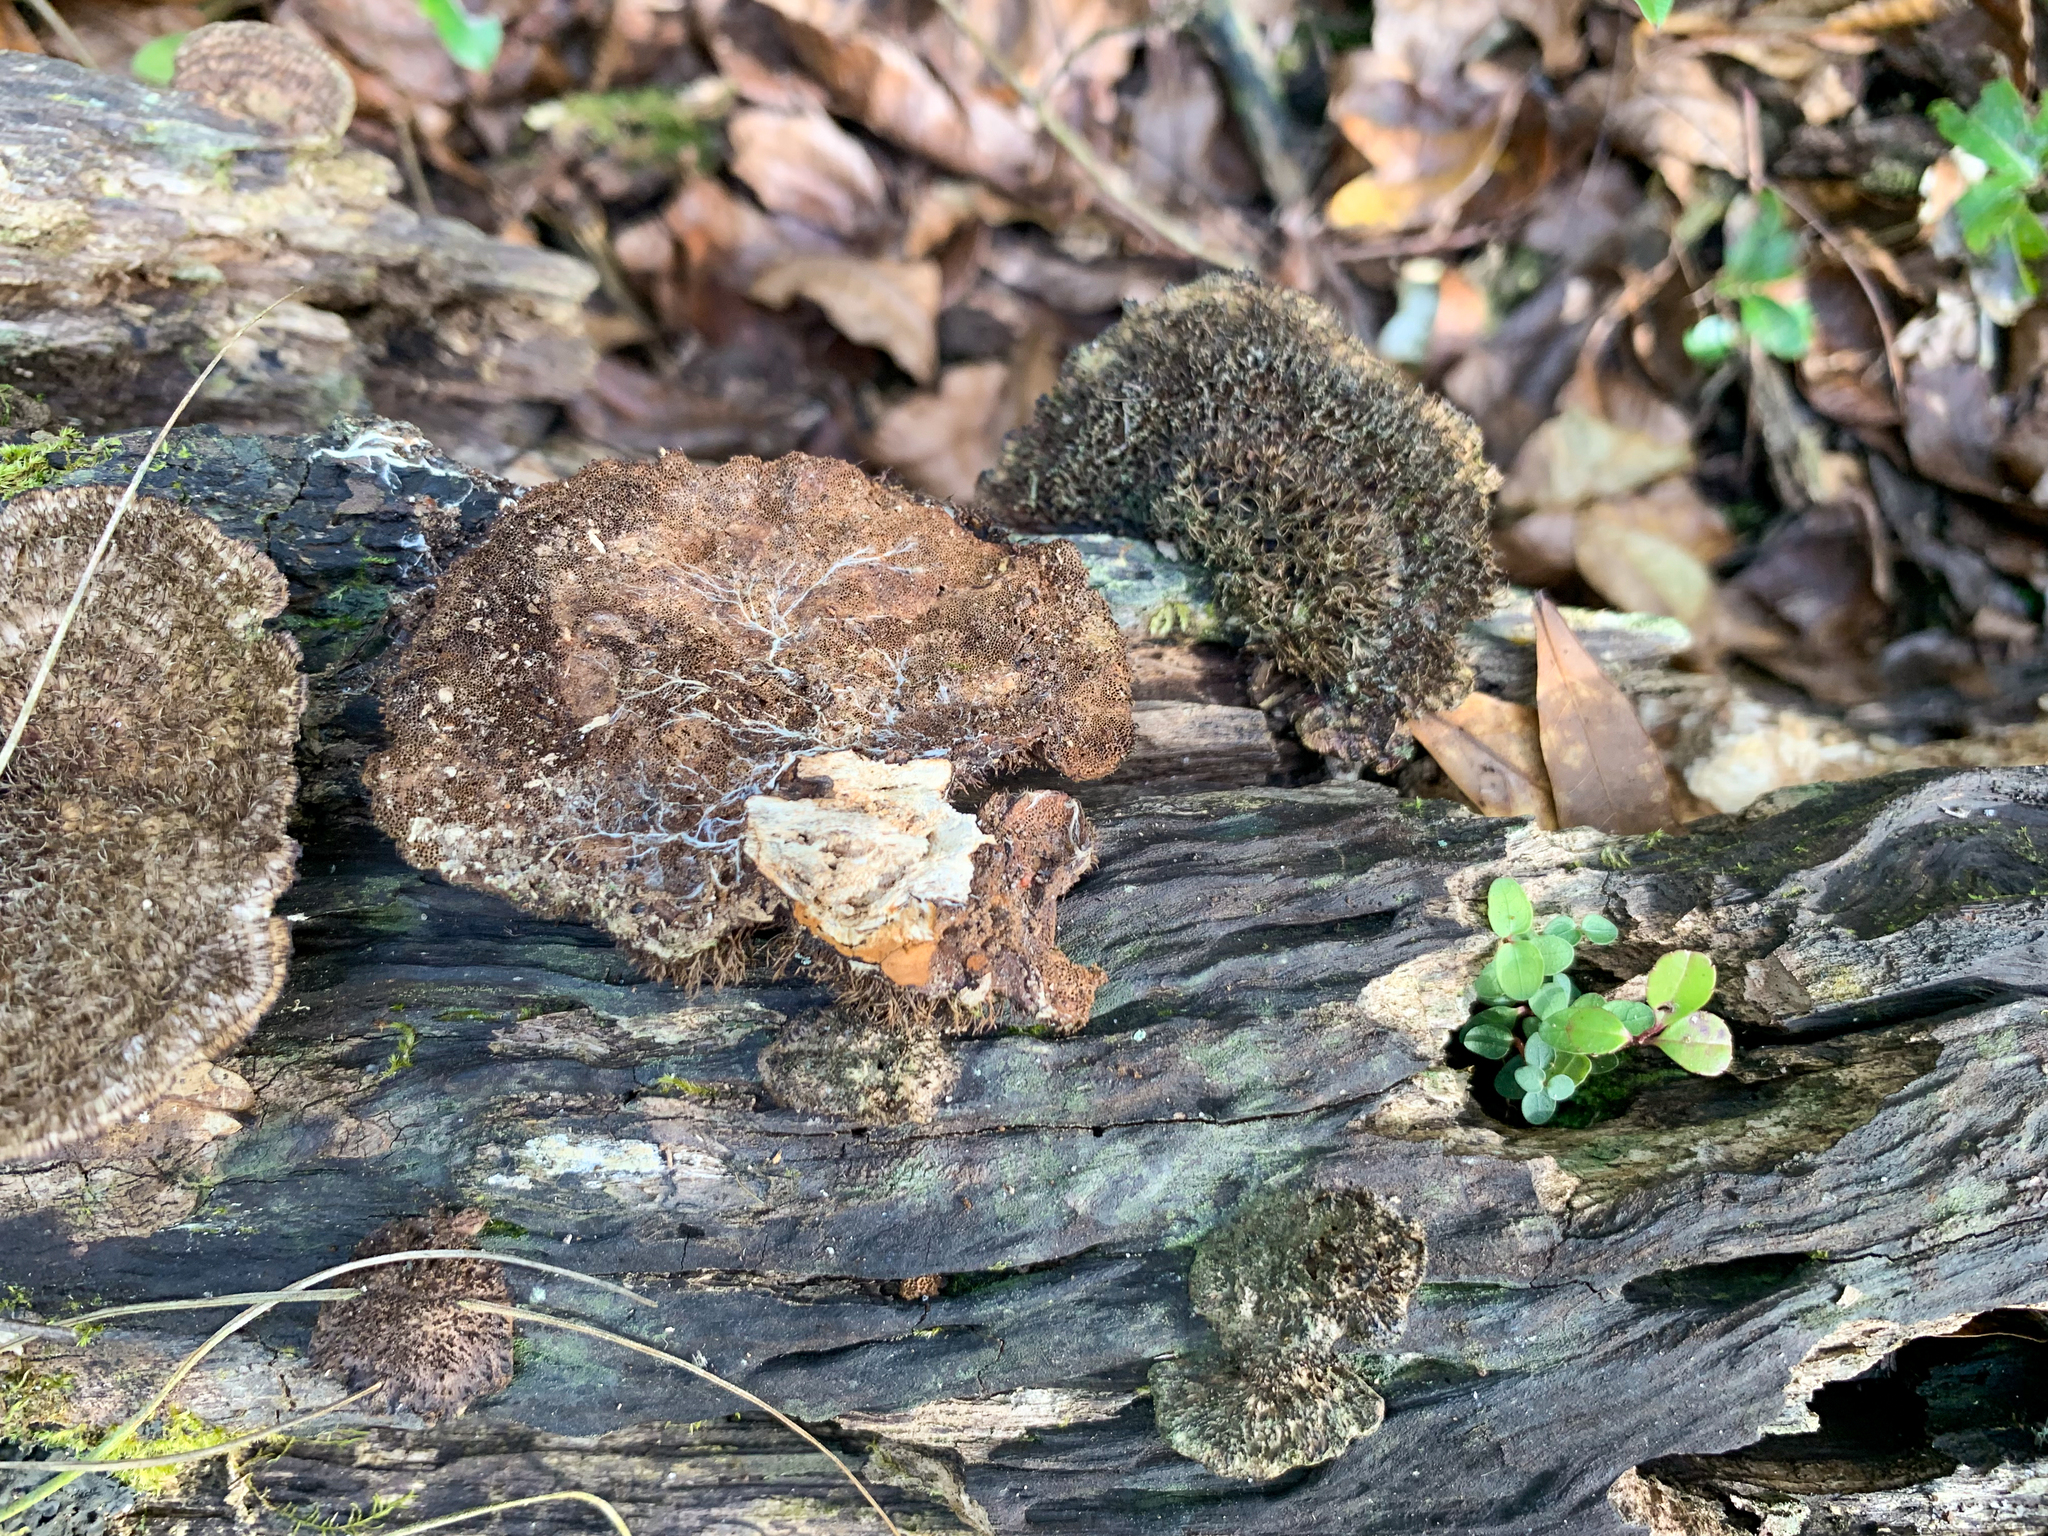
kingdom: Fungi
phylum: Basidiomycota
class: Agaricomycetes
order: Polyporales
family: Cerrenaceae
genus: Cerrena
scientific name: Cerrena hydnoides
